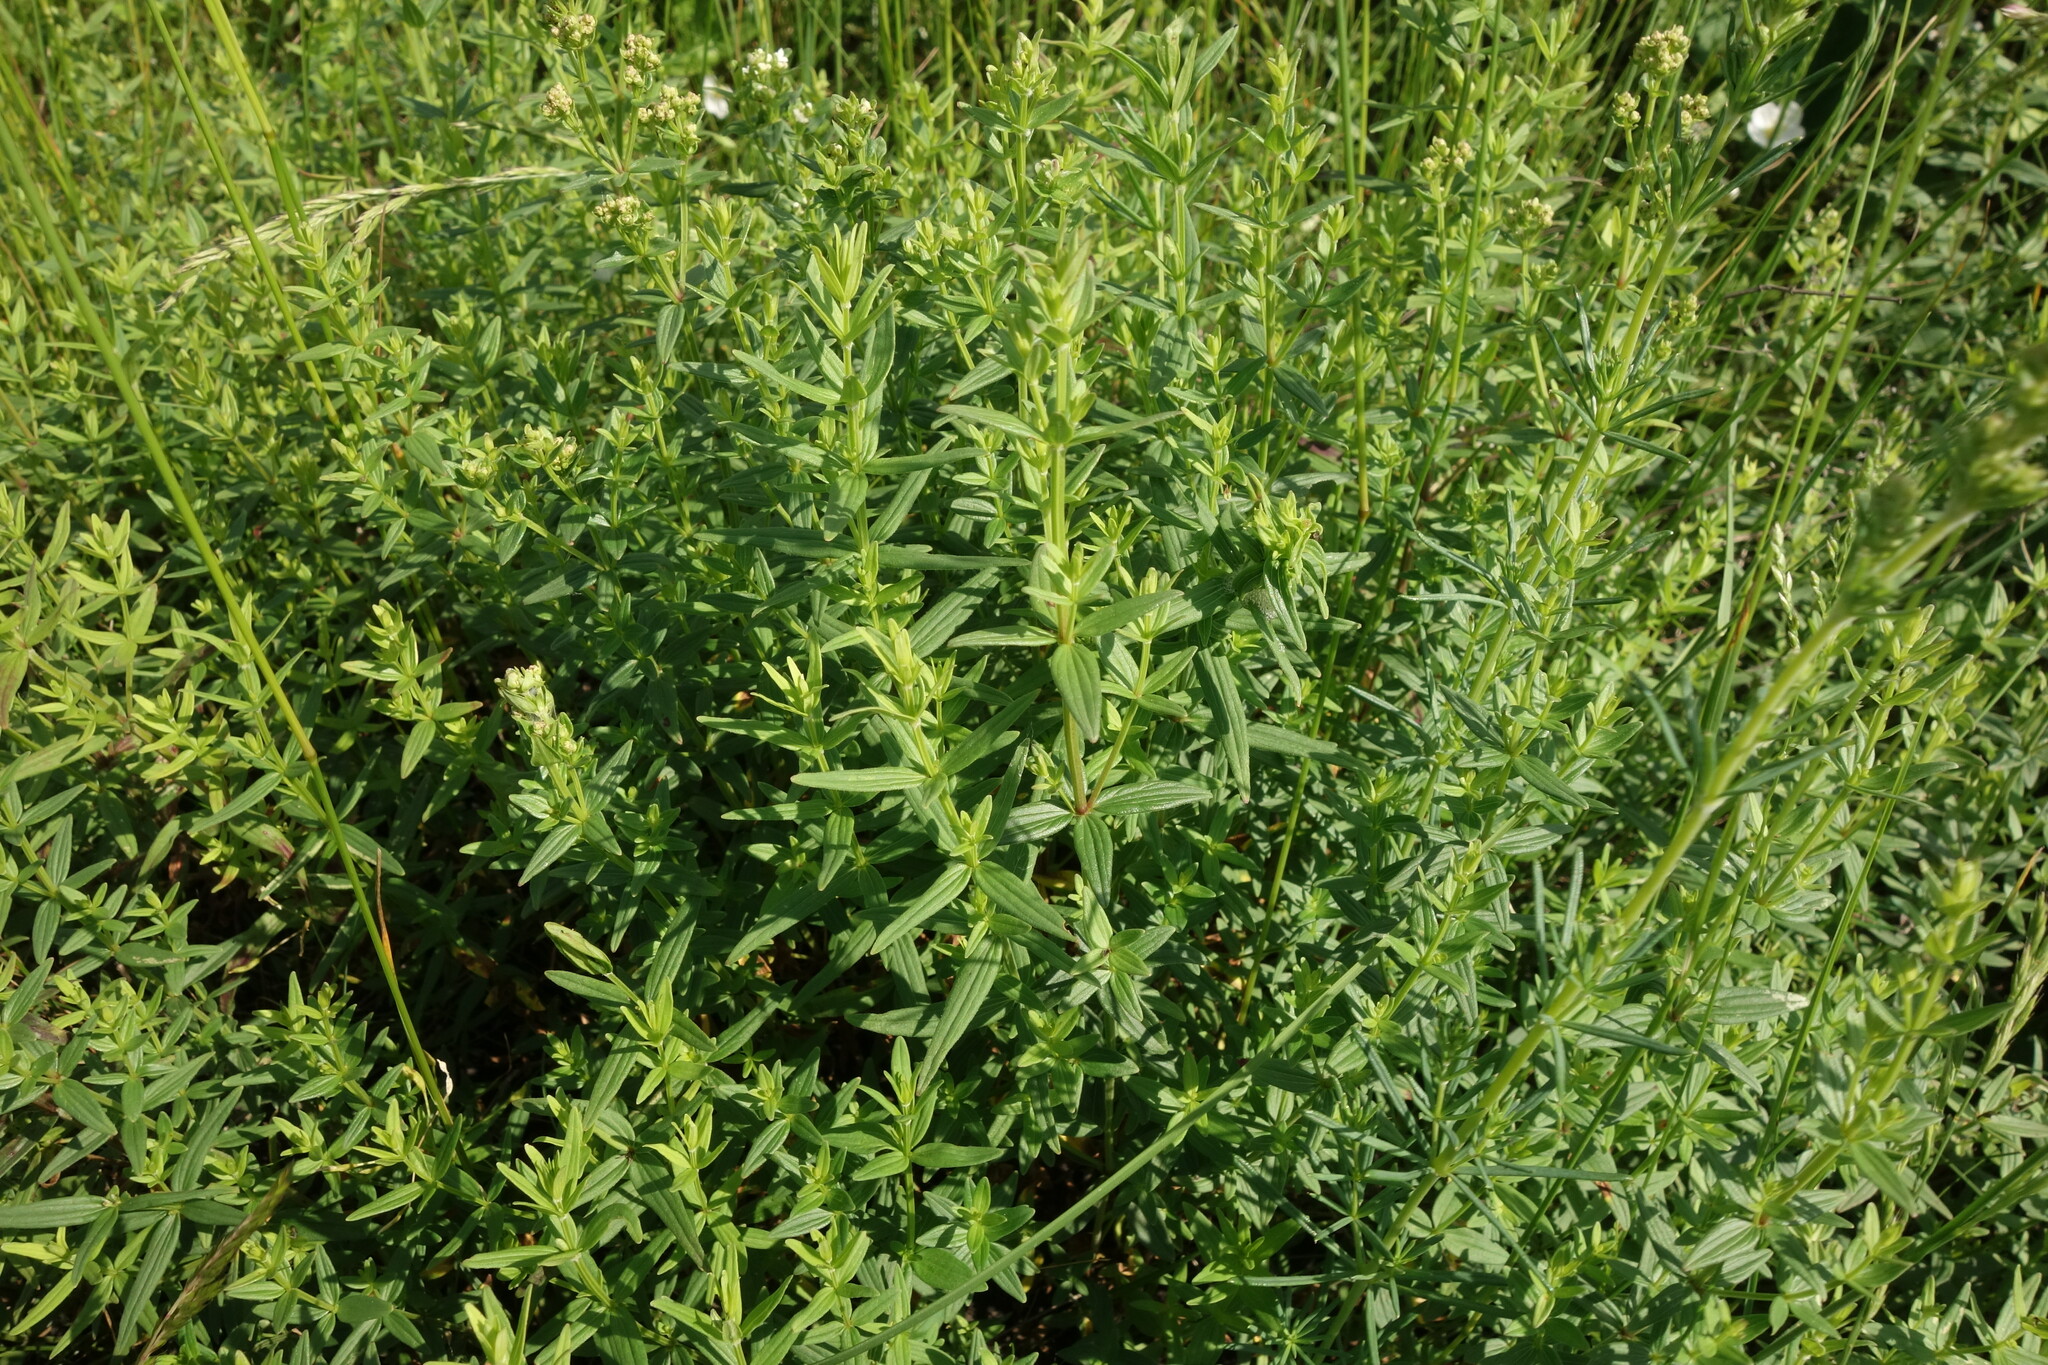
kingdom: Plantae
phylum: Tracheophyta
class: Magnoliopsida
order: Gentianales
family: Rubiaceae
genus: Galium
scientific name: Galium boreale
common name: Northern bedstraw
